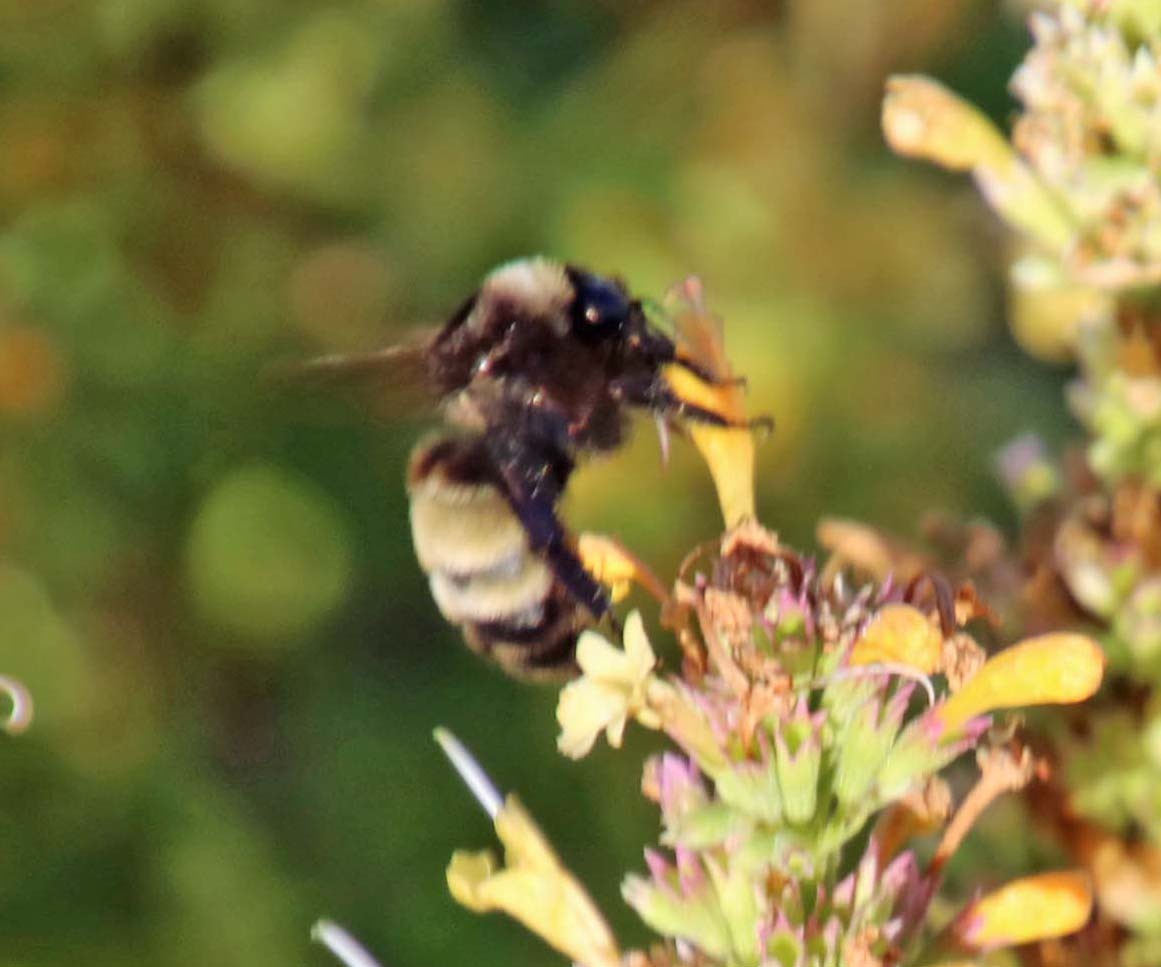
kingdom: Animalia
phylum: Arthropoda
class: Insecta
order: Hymenoptera
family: Apidae
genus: Bombus
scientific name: Bombus pensylvanicus
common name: Bumble bee
